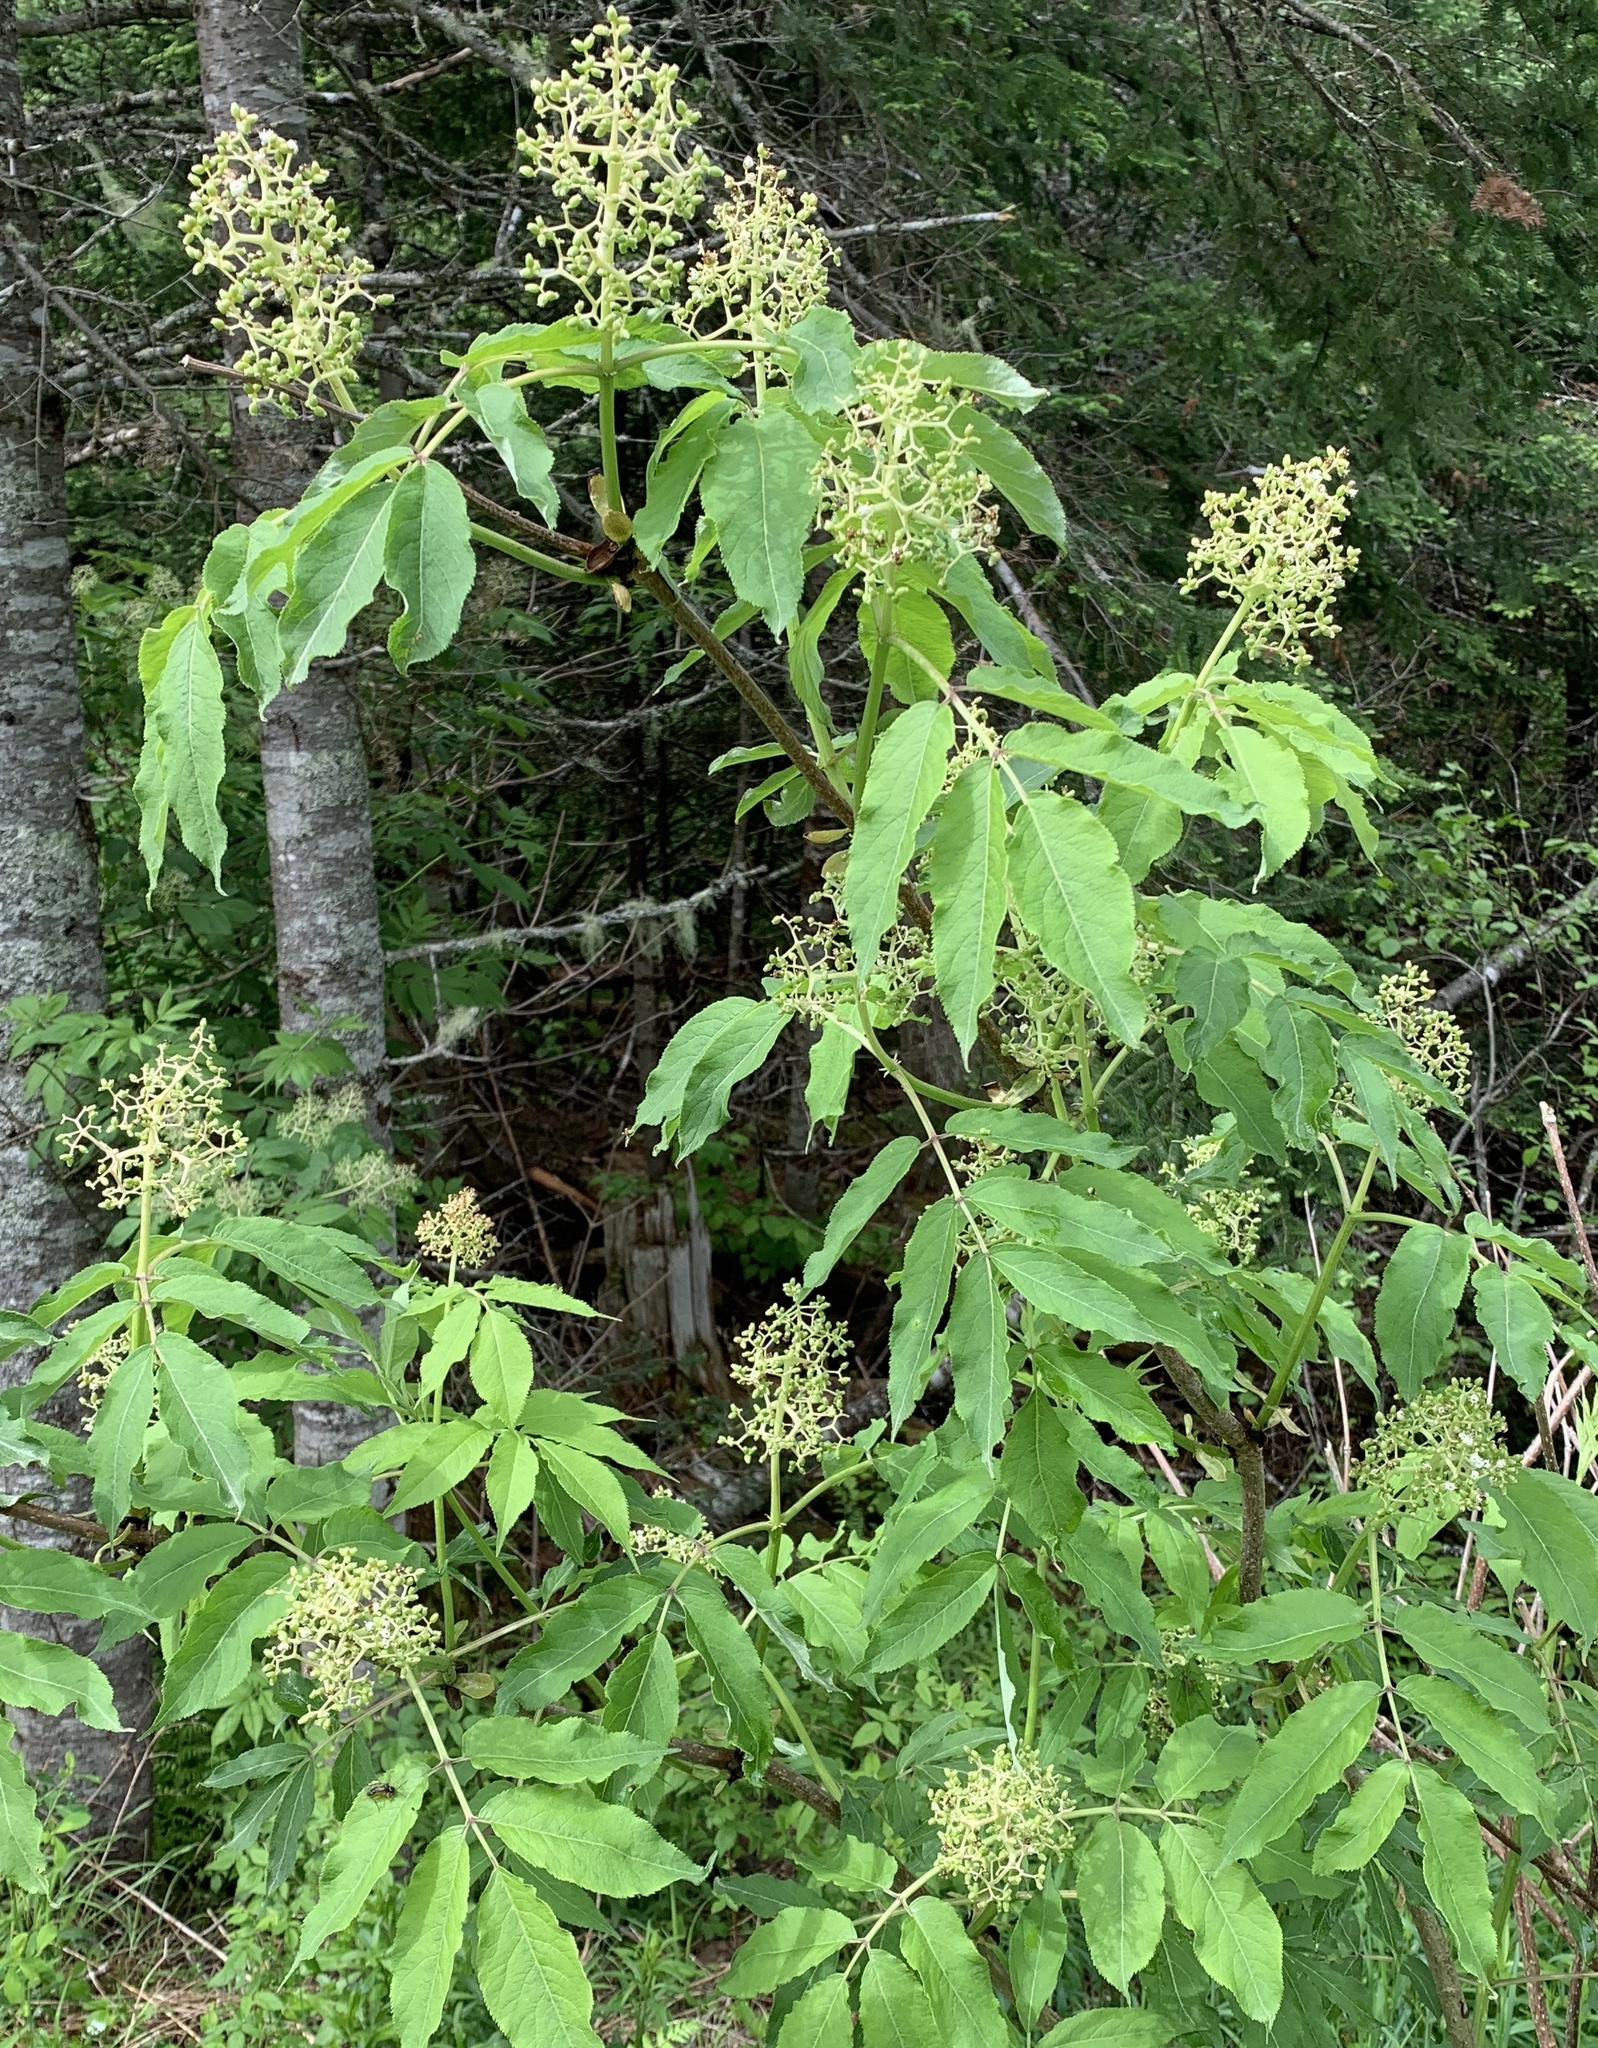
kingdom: Plantae
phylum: Tracheophyta
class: Magnoliopsida
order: Dipsacales
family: Viburnaceae
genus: Sambucus
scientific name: Sambucus racemosa
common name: Red-berried elder
